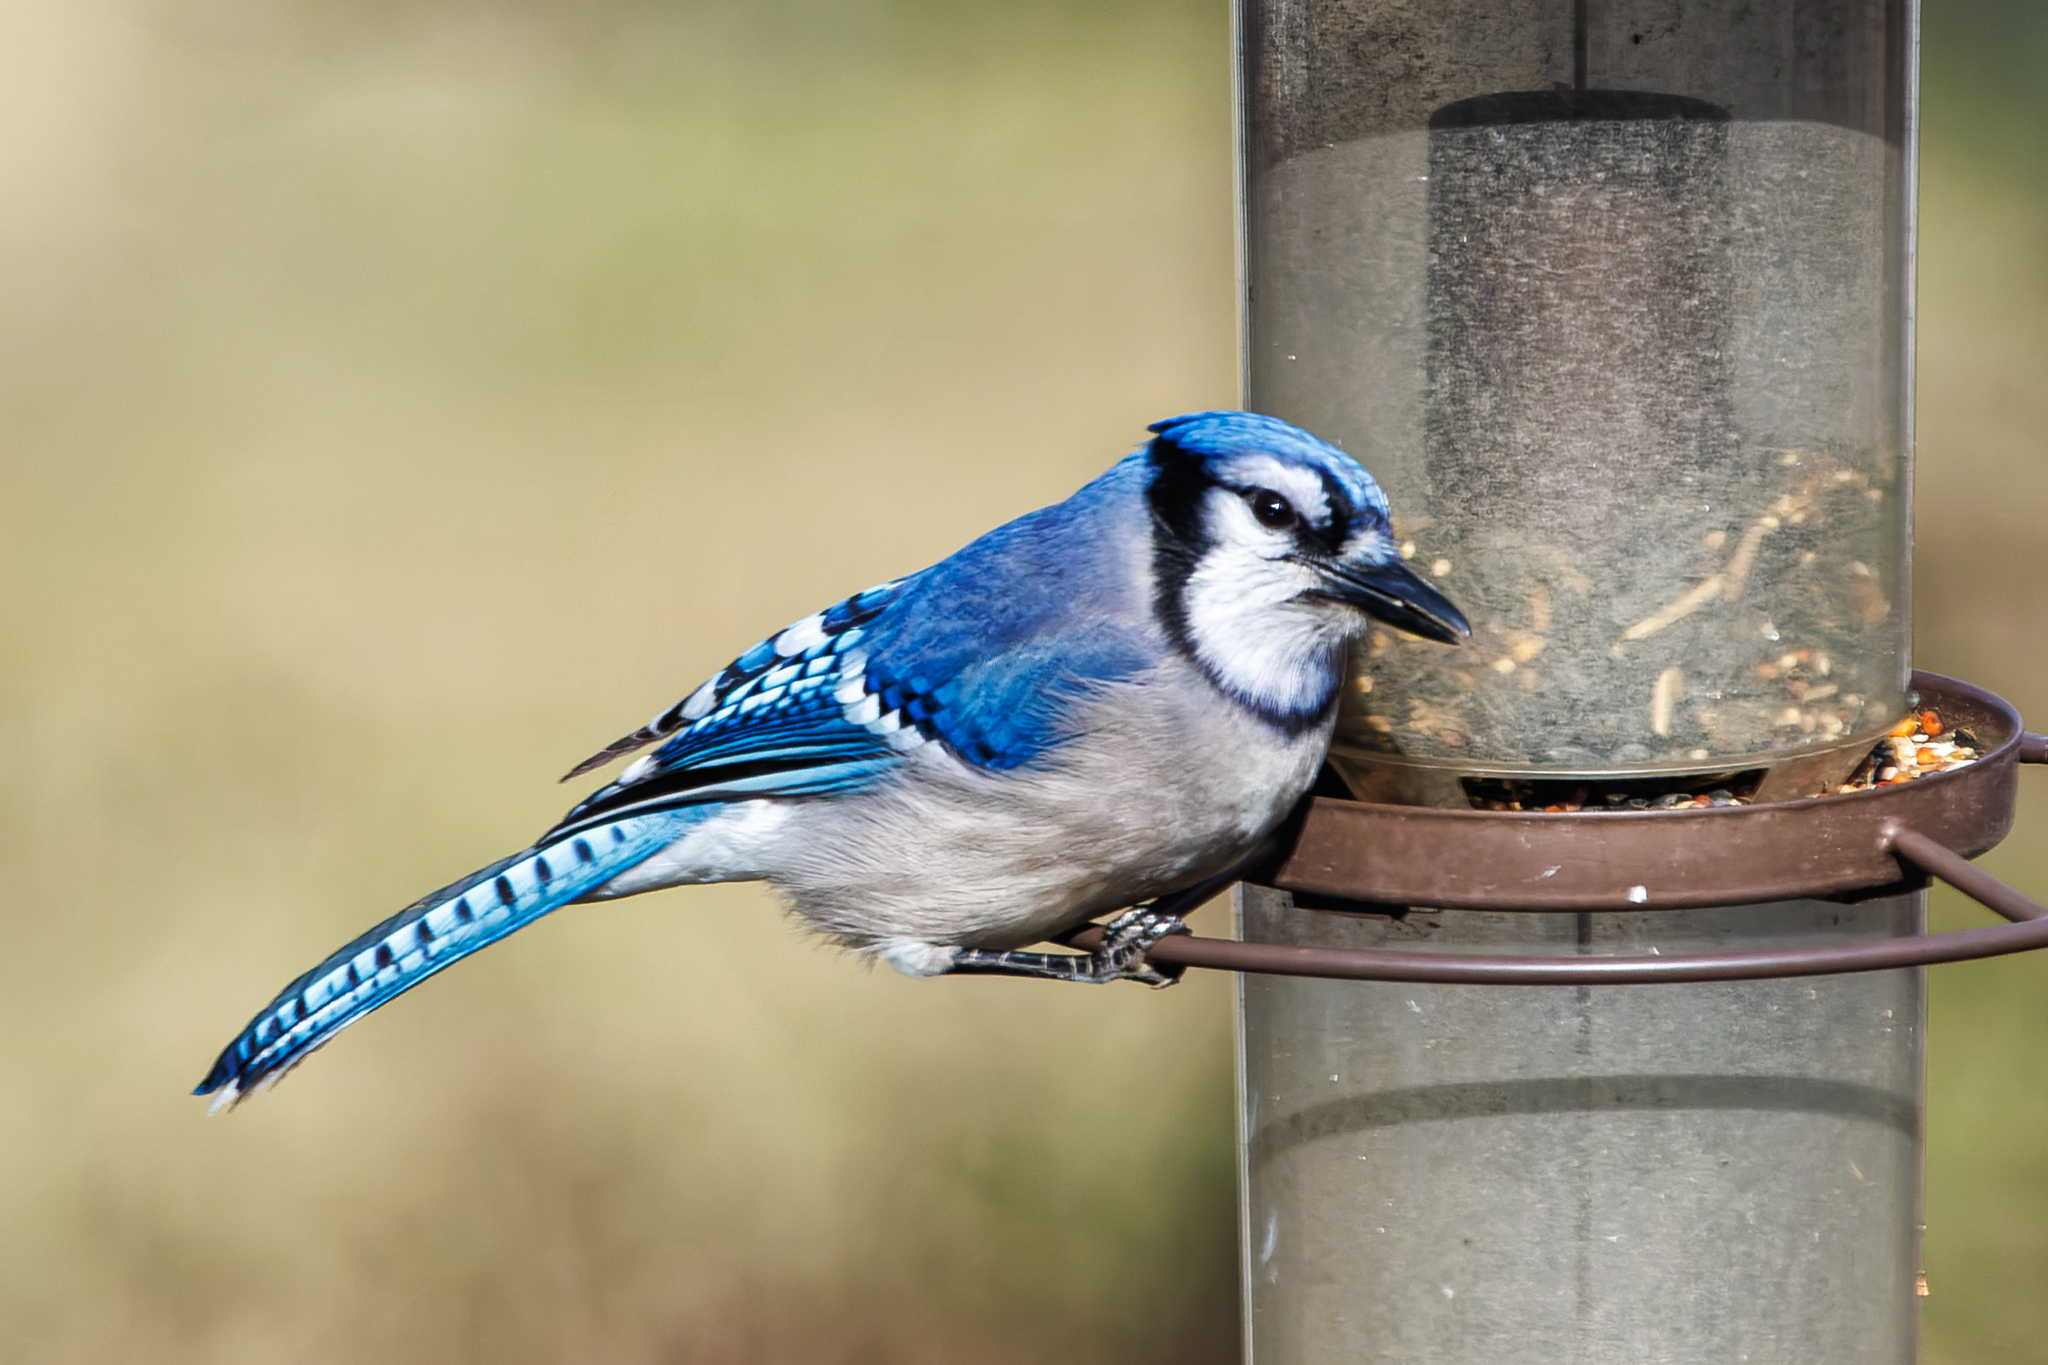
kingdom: Animalia
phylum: Chordata
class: Aves
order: Passeriformes
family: Corvidae
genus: Cyanocitta
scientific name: Cyanocitta cristata
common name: Blue jay
